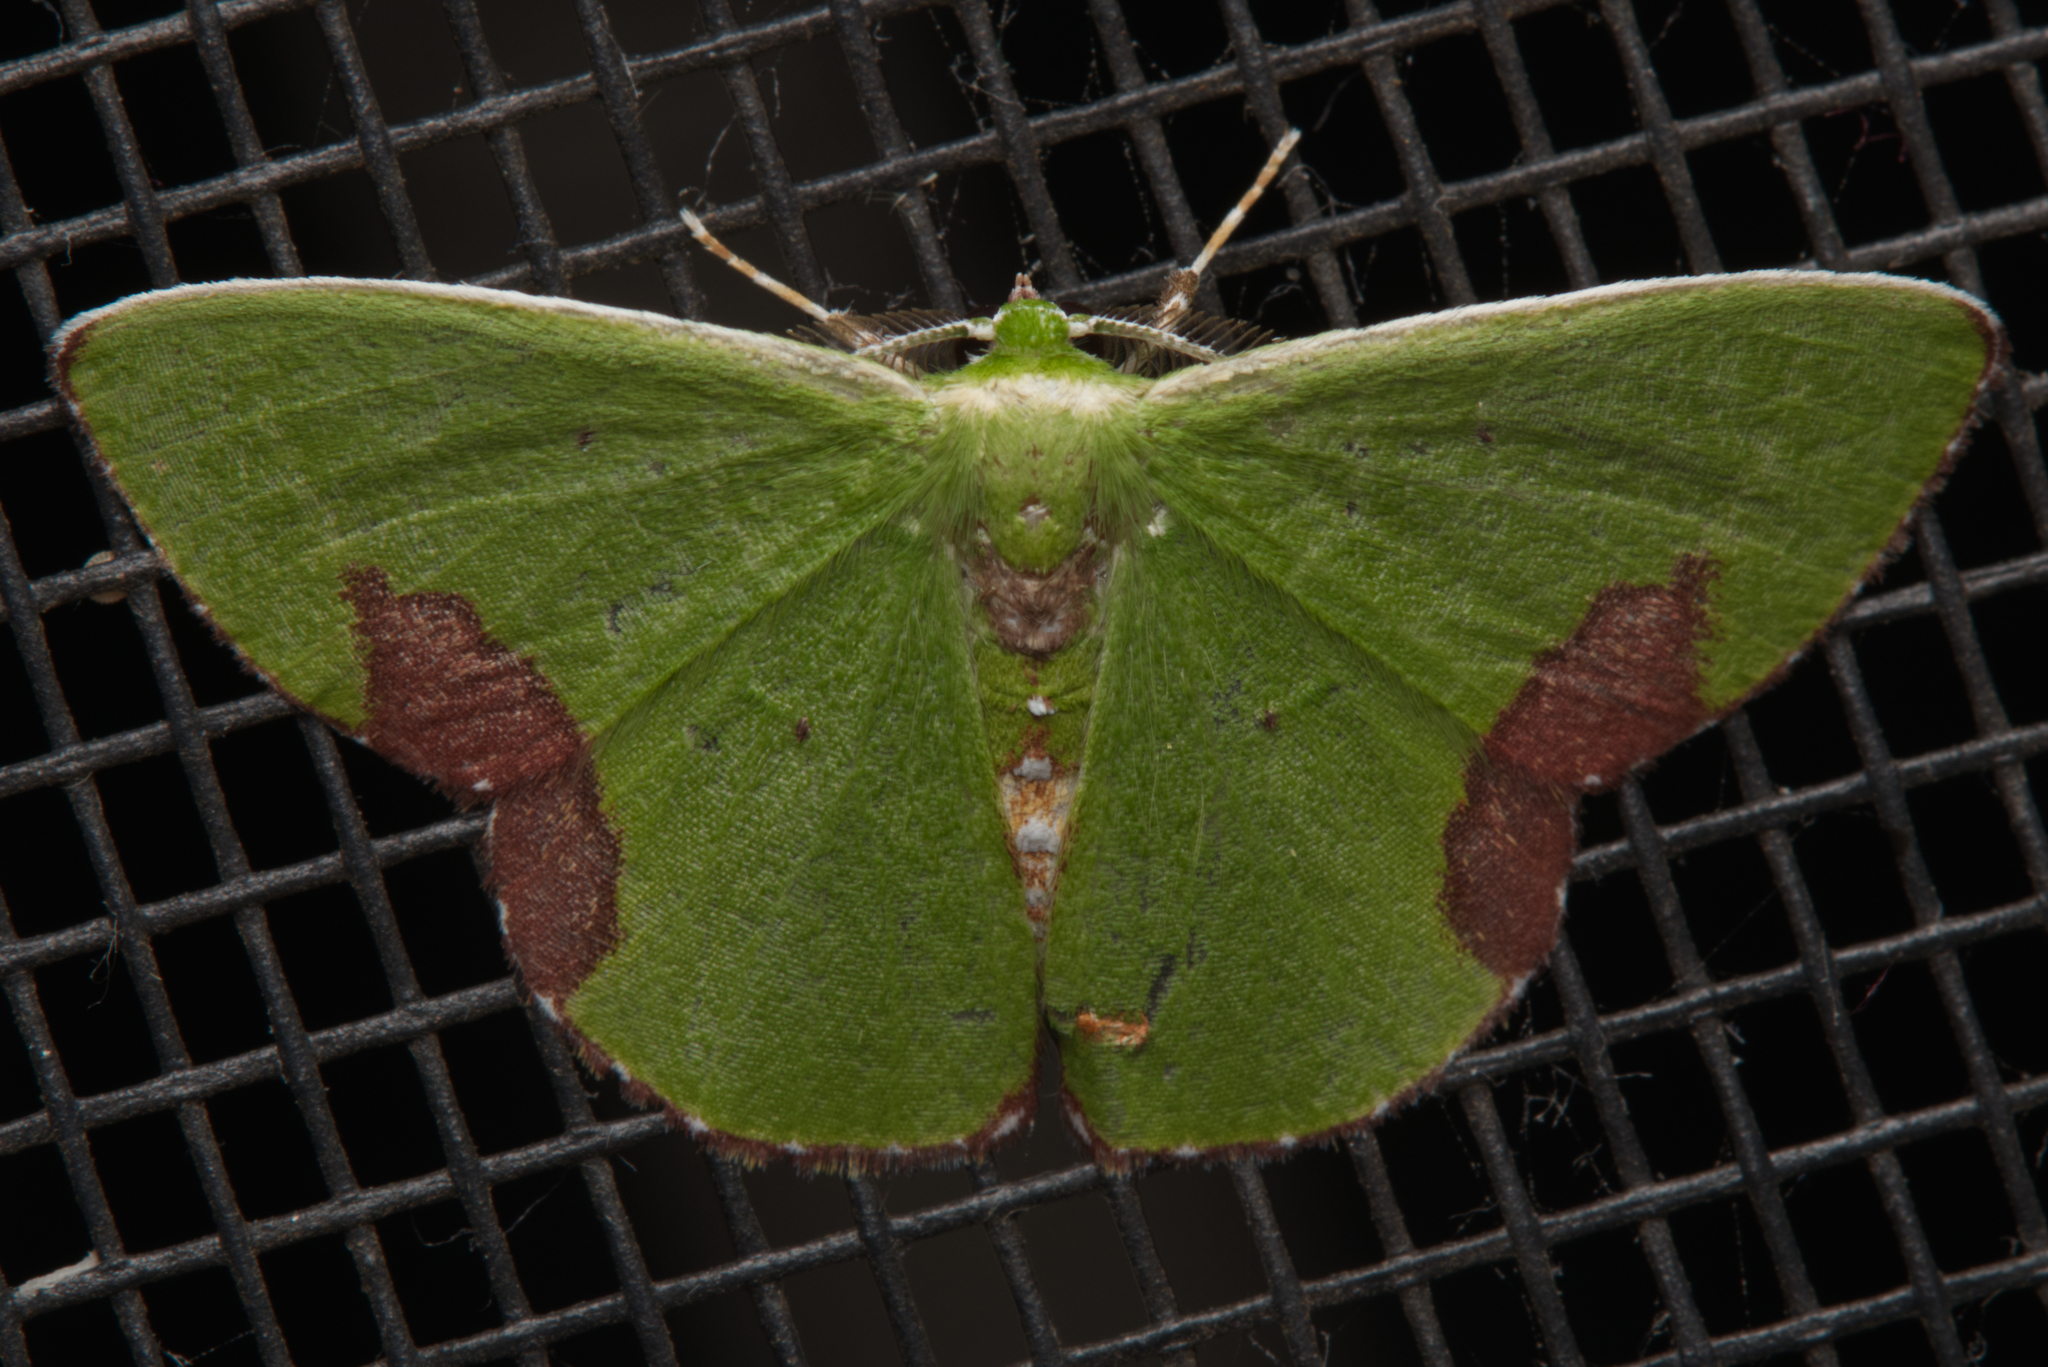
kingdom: Animalia
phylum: Arthropoda
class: Insecta
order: Lepidoptera
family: Geometridae
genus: Comibaena
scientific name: Comibaena mariae
